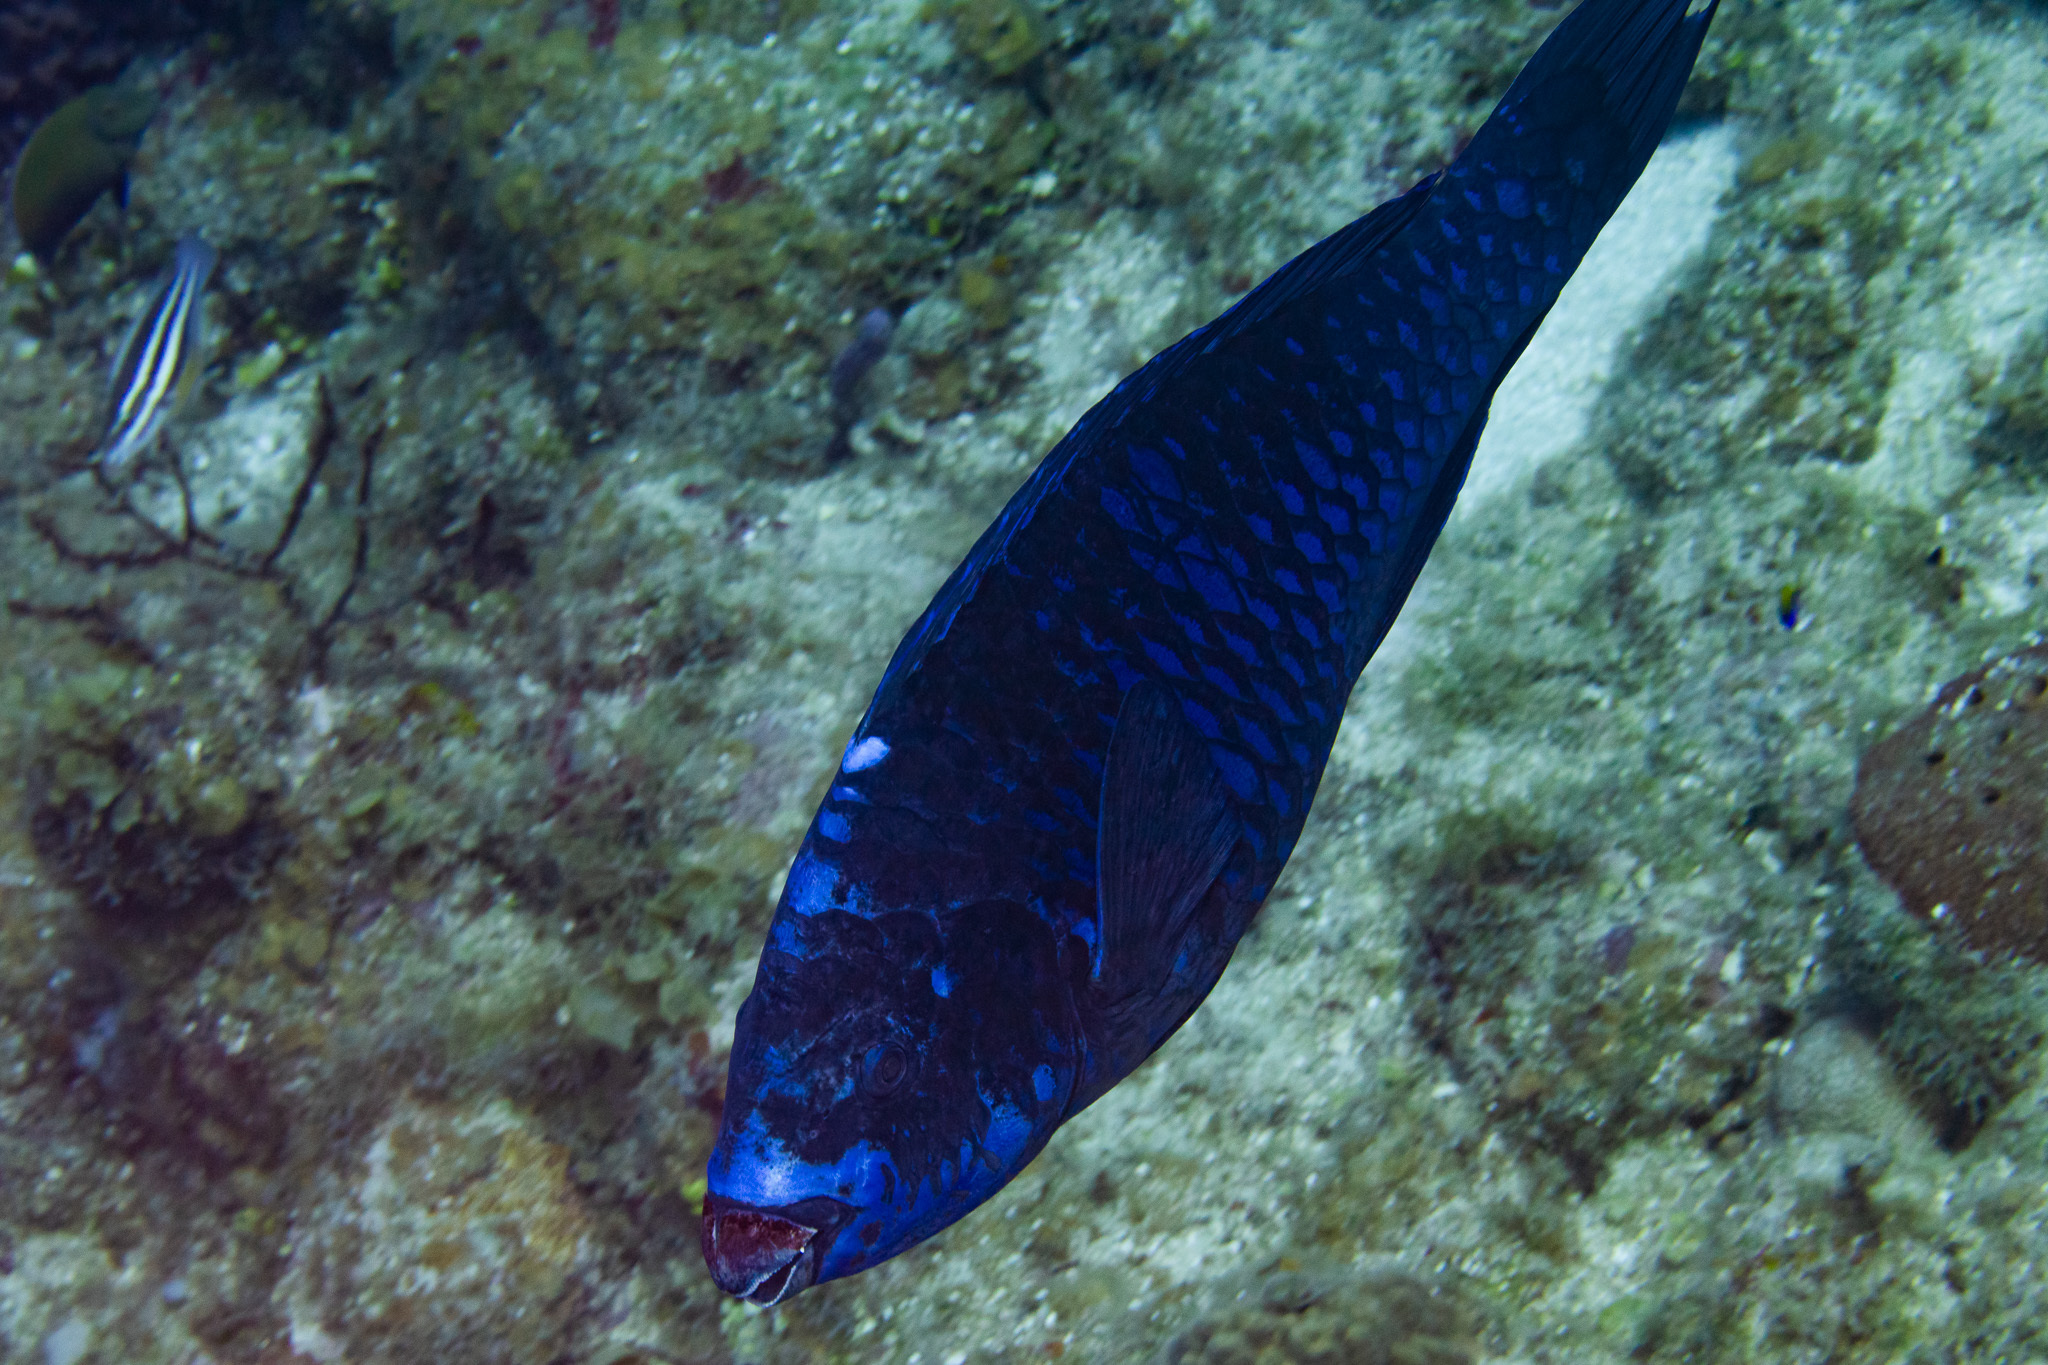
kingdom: Animalia
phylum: Chordata
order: Perciformes
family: Scaridae
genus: Scarus
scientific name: Scarus coelestinus
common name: Midnight parrotfish
